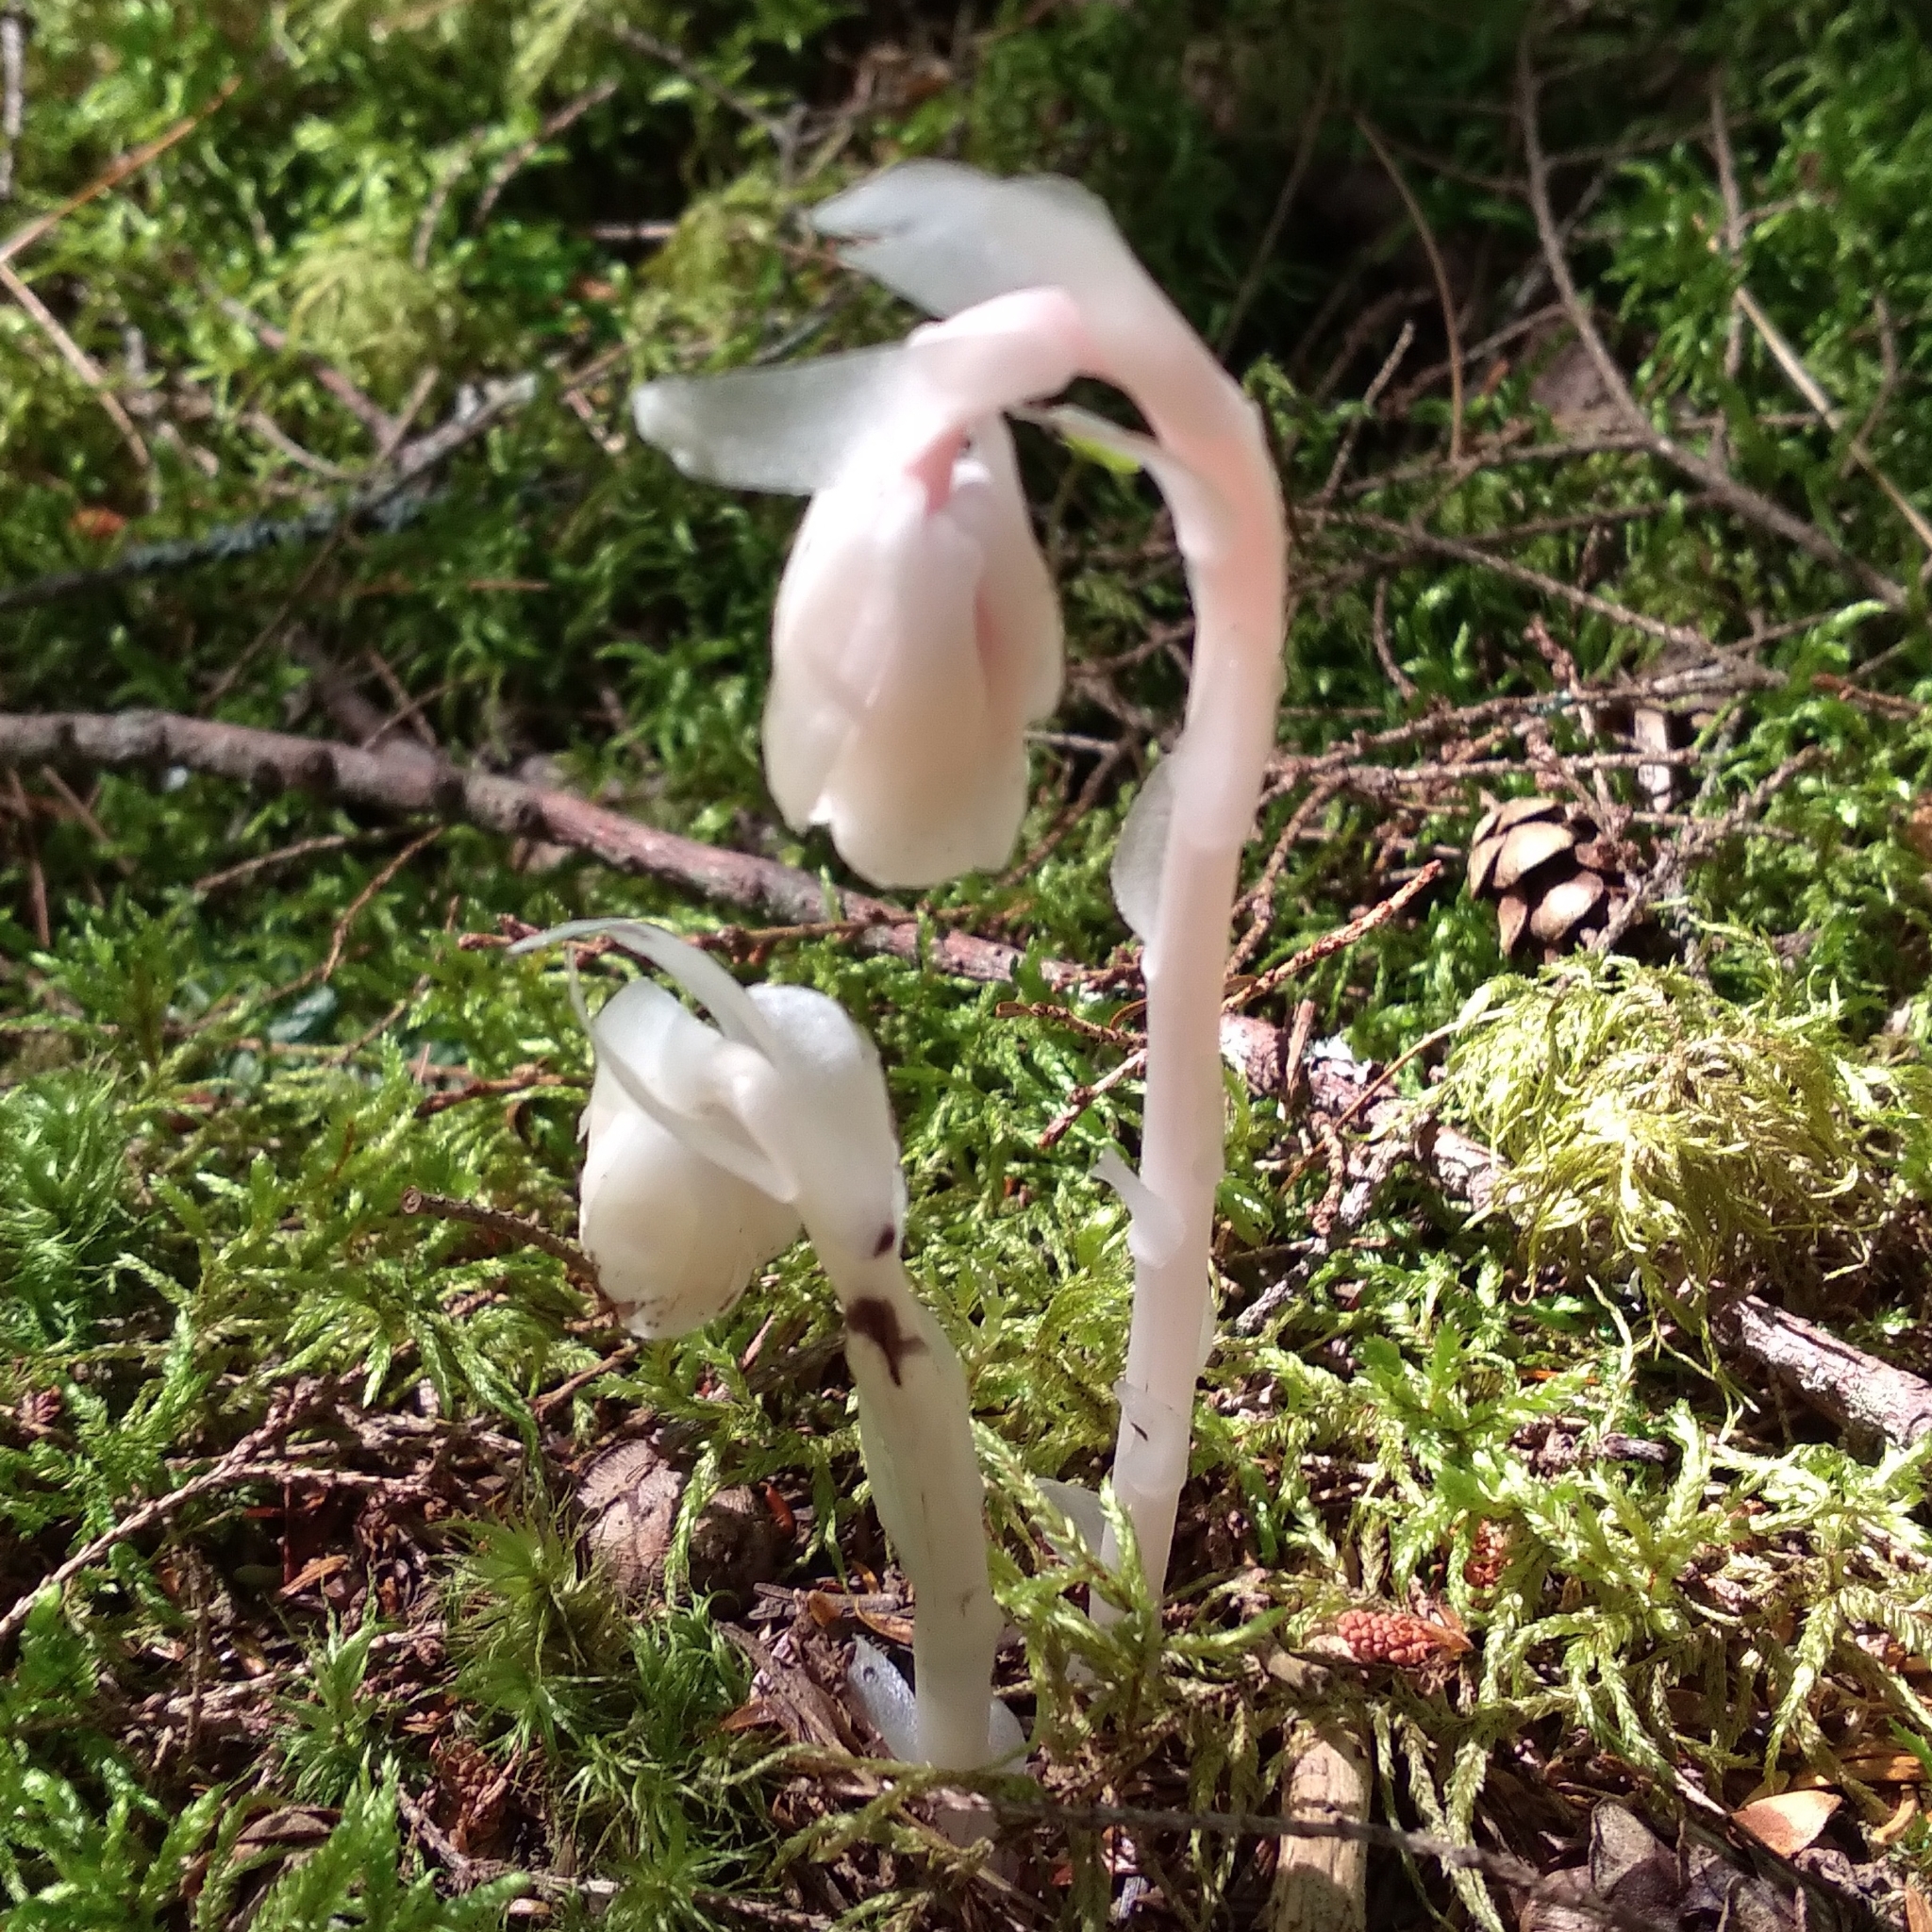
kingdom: Plantae
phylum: Tracheophyta
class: Magnoliopsida
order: Ericales
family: Ericaceae
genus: Monotropa
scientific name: Monotropa uniflora
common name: Convulsion root
